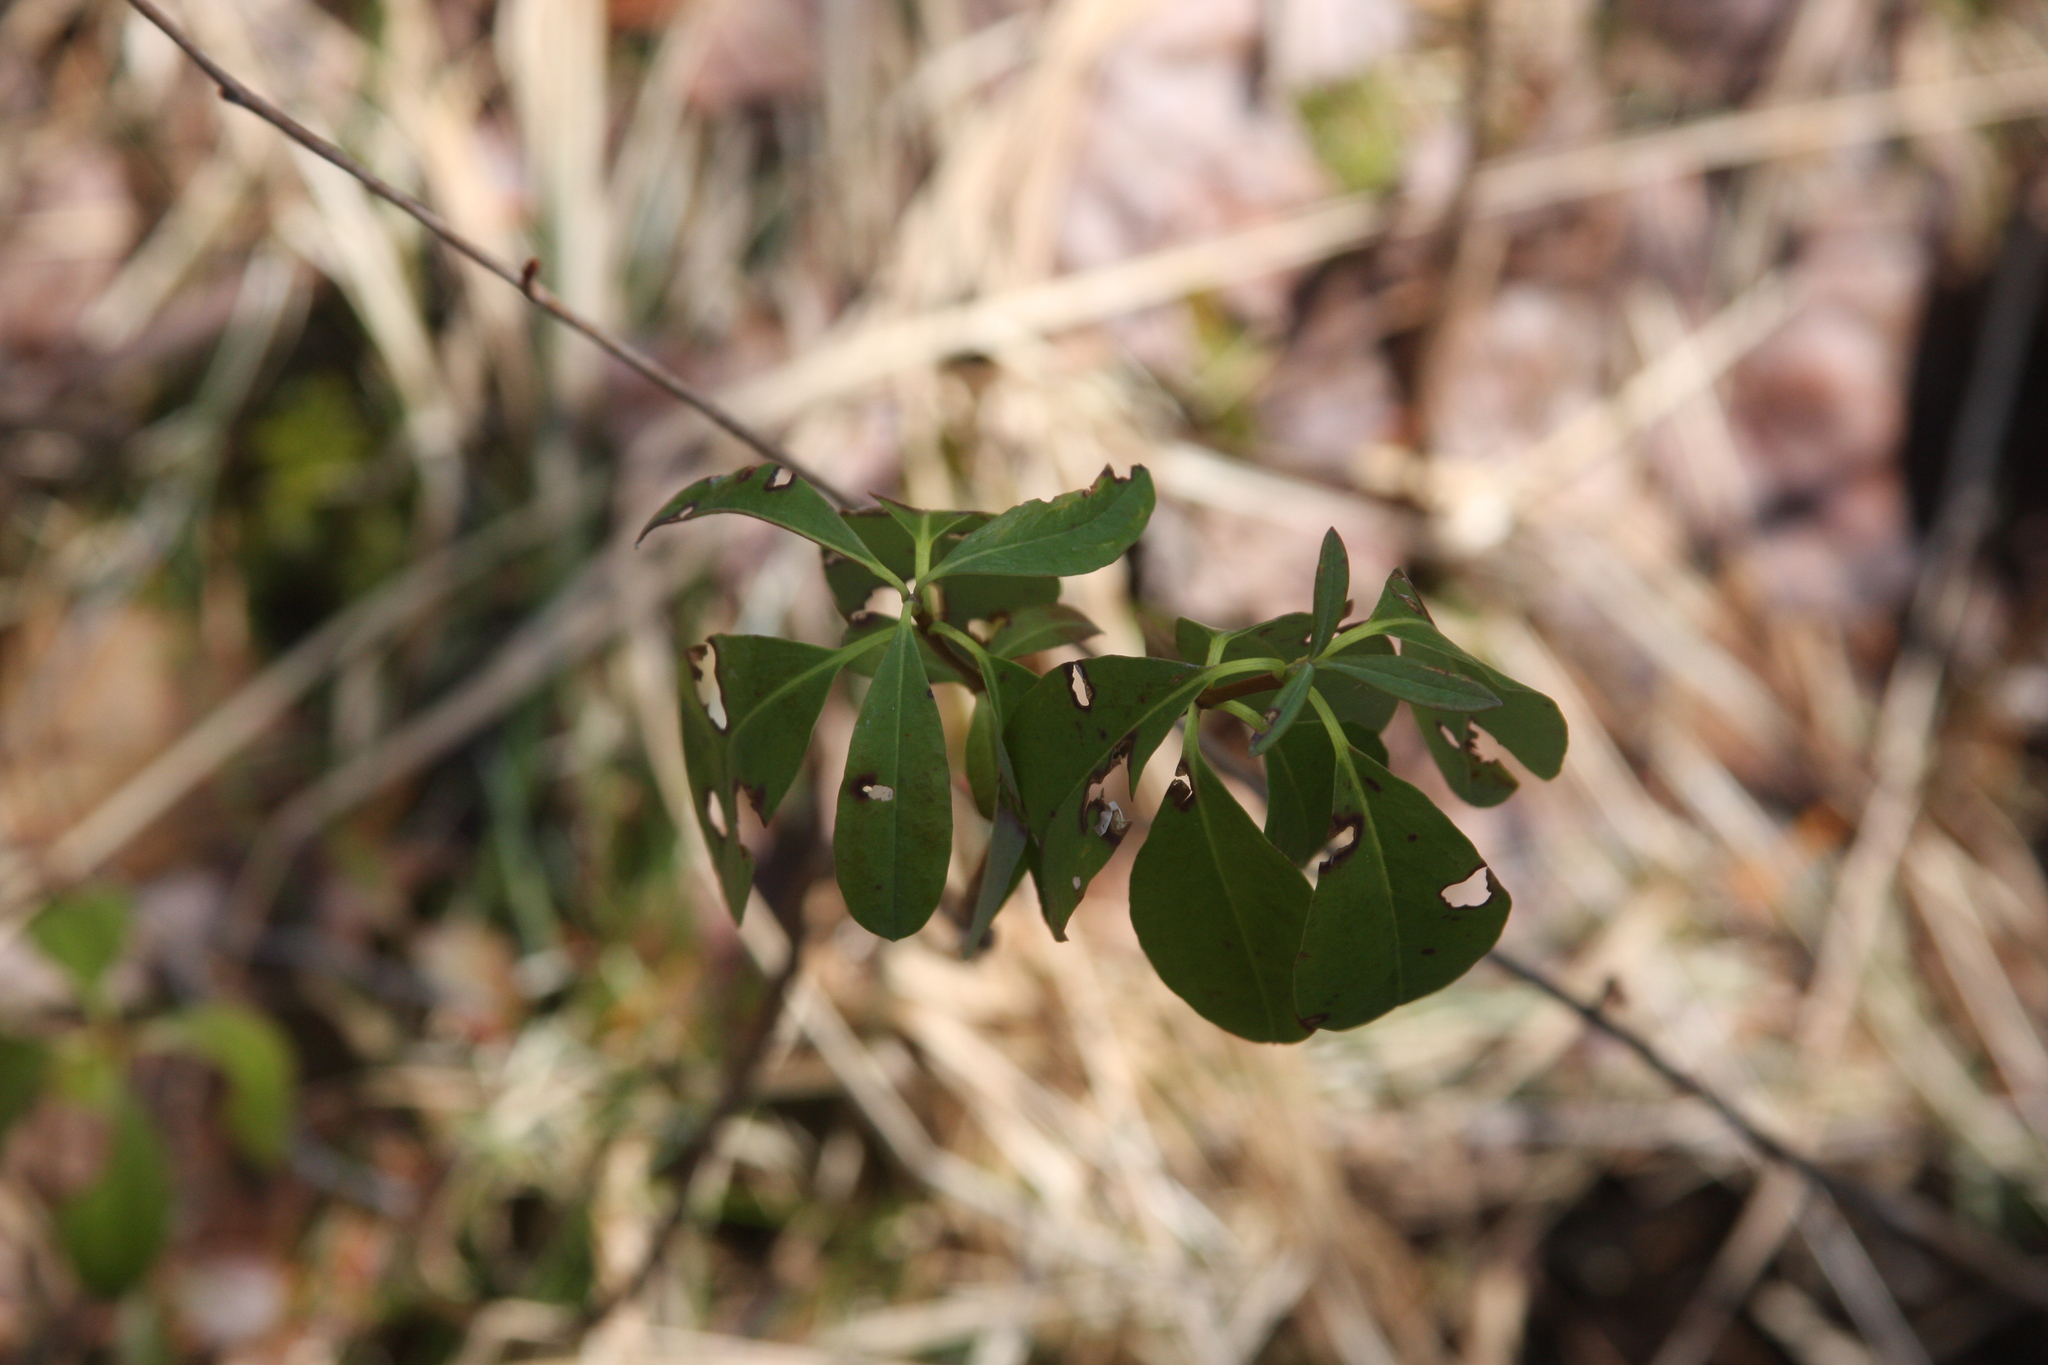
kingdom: Plantae
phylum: Tracheophyta
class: Magnoliopsida
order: Ericales
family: Ericaceae
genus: Kalmia
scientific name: Kalmia angustifolia
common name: Sheep-laurel
